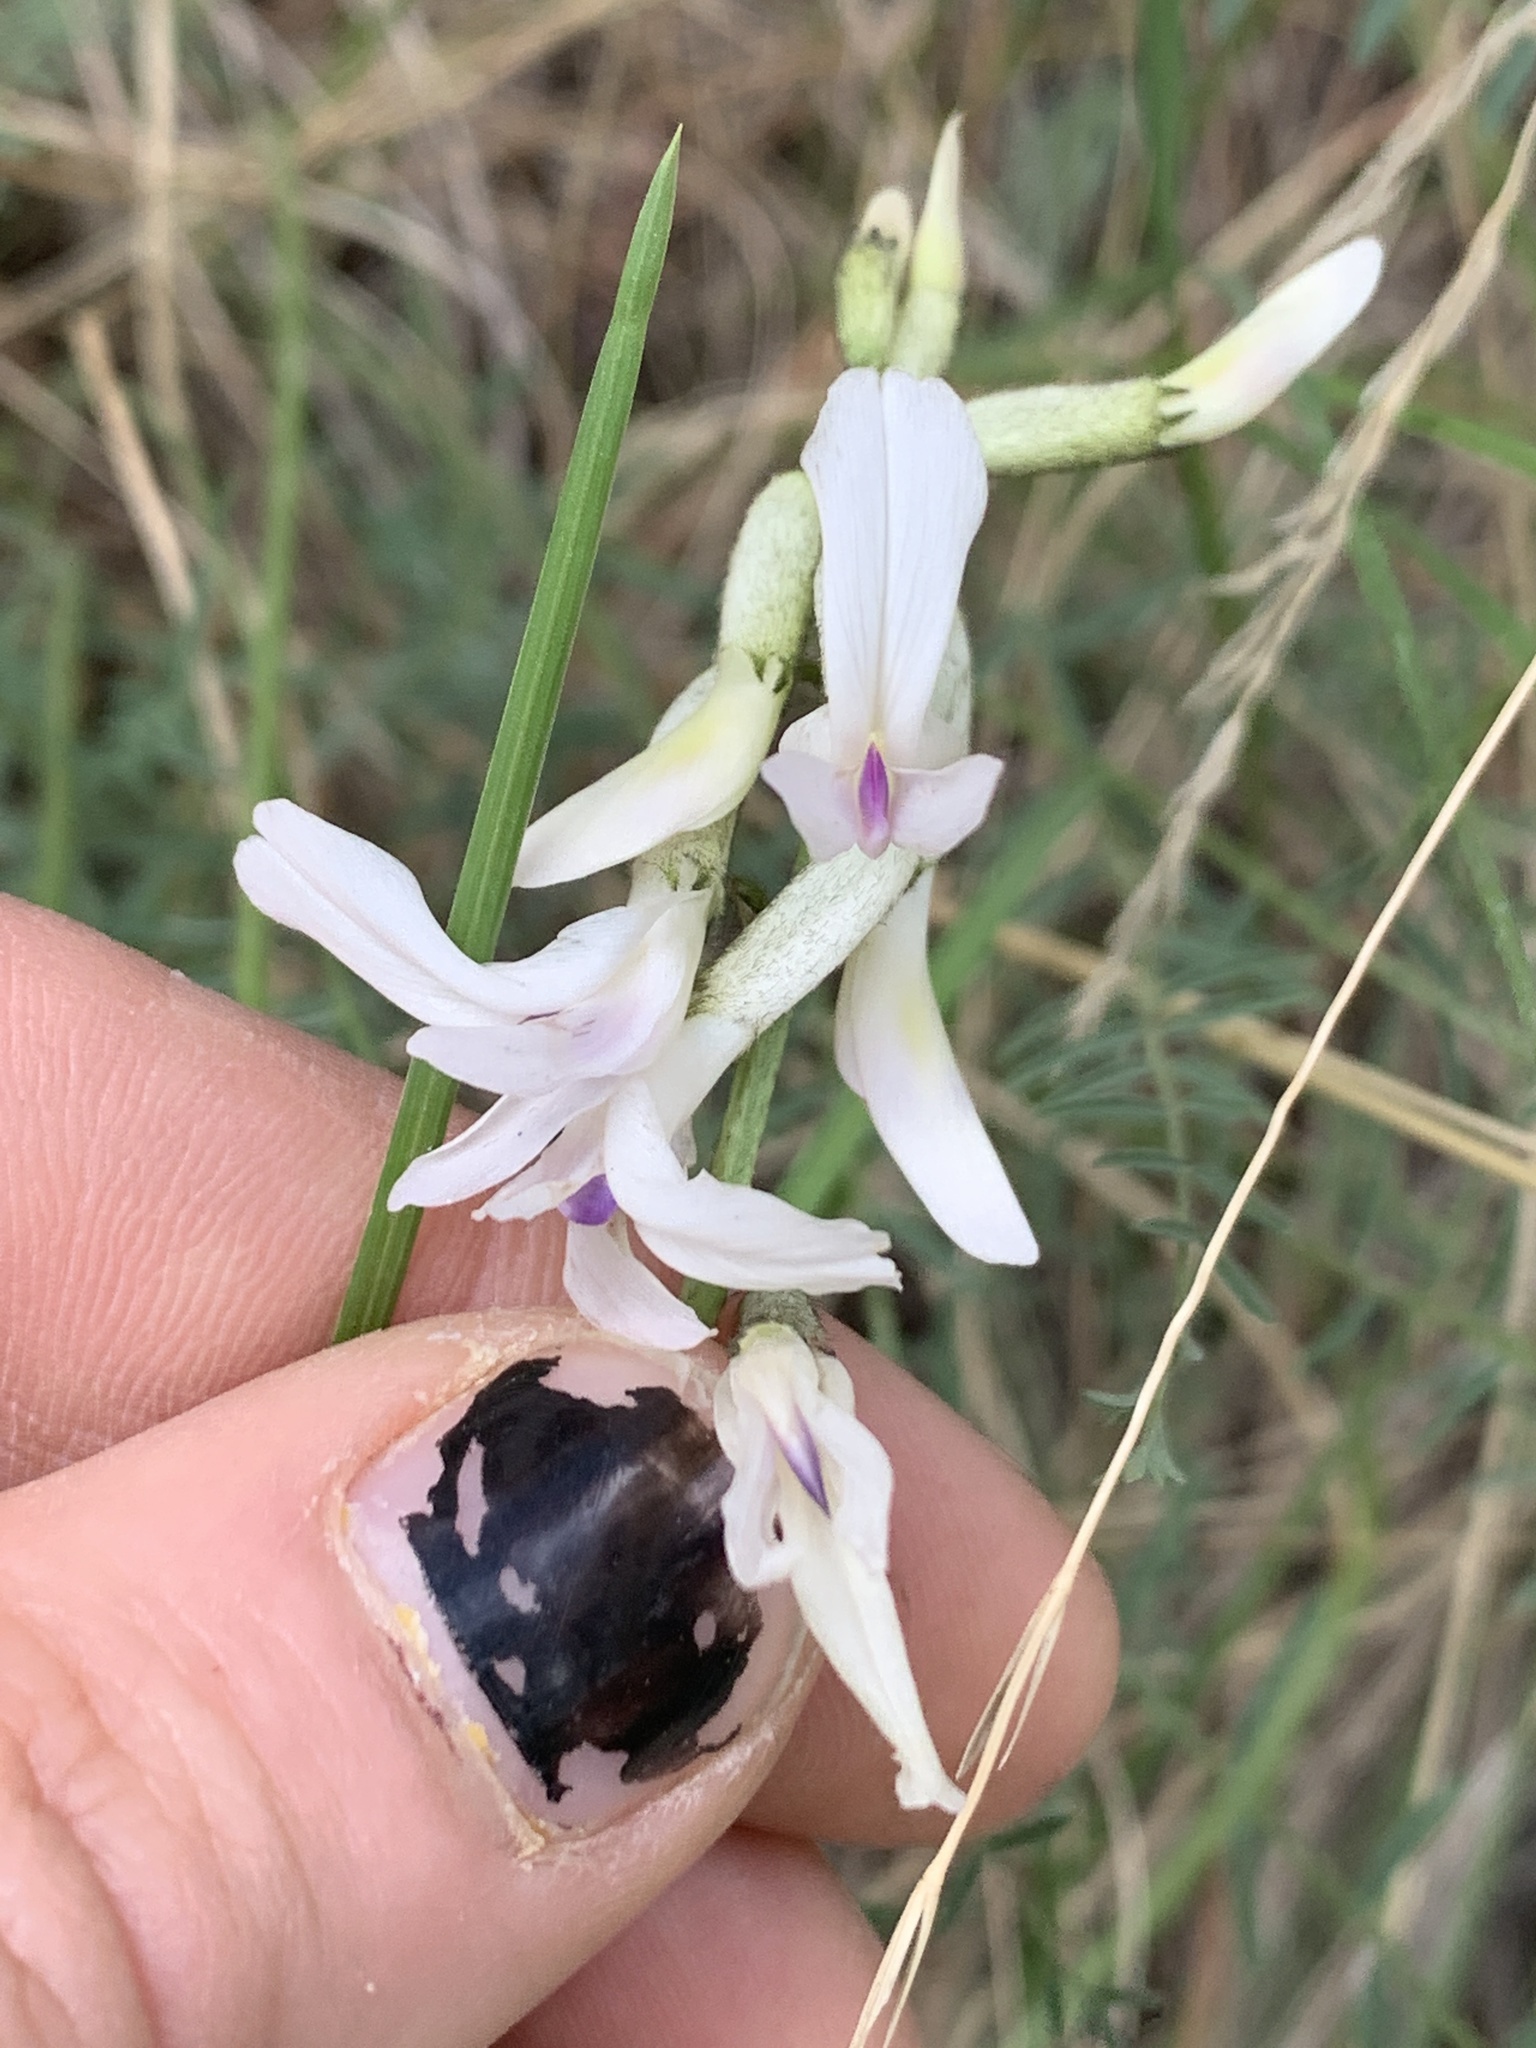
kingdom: Plantae
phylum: Tracheophyta
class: Magnoliopsida
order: Fabales
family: Fabaceae
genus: Astragalus
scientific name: Astragalus conjunctus
